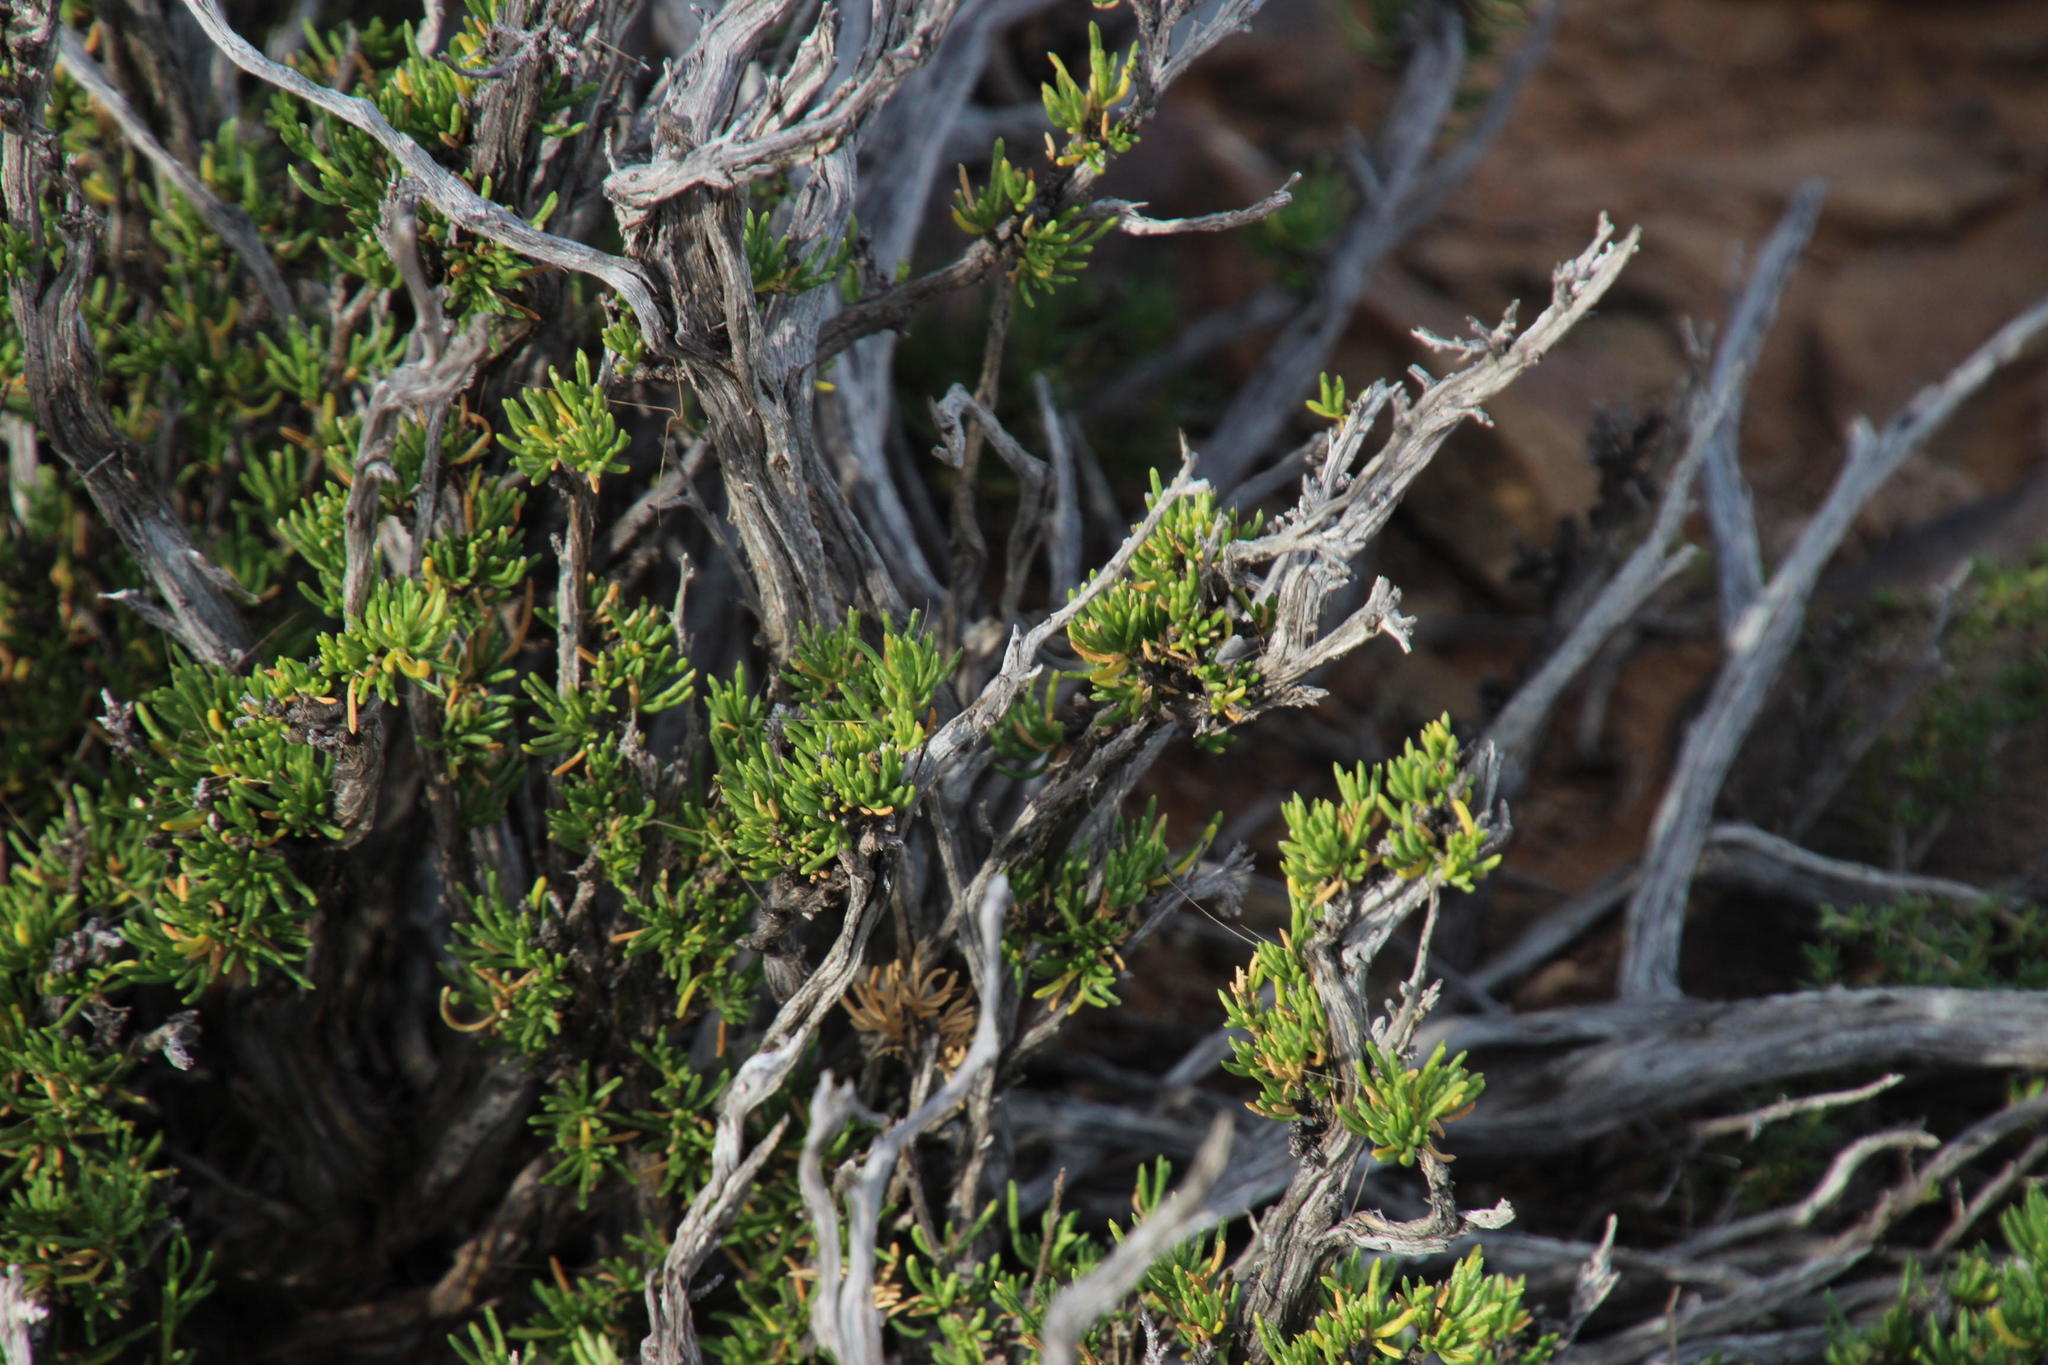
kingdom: Plantae
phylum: Tracheophyta
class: Magnoliopsida
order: Asterales
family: Asteraceae
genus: Felicia
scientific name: Felicia filifolia
